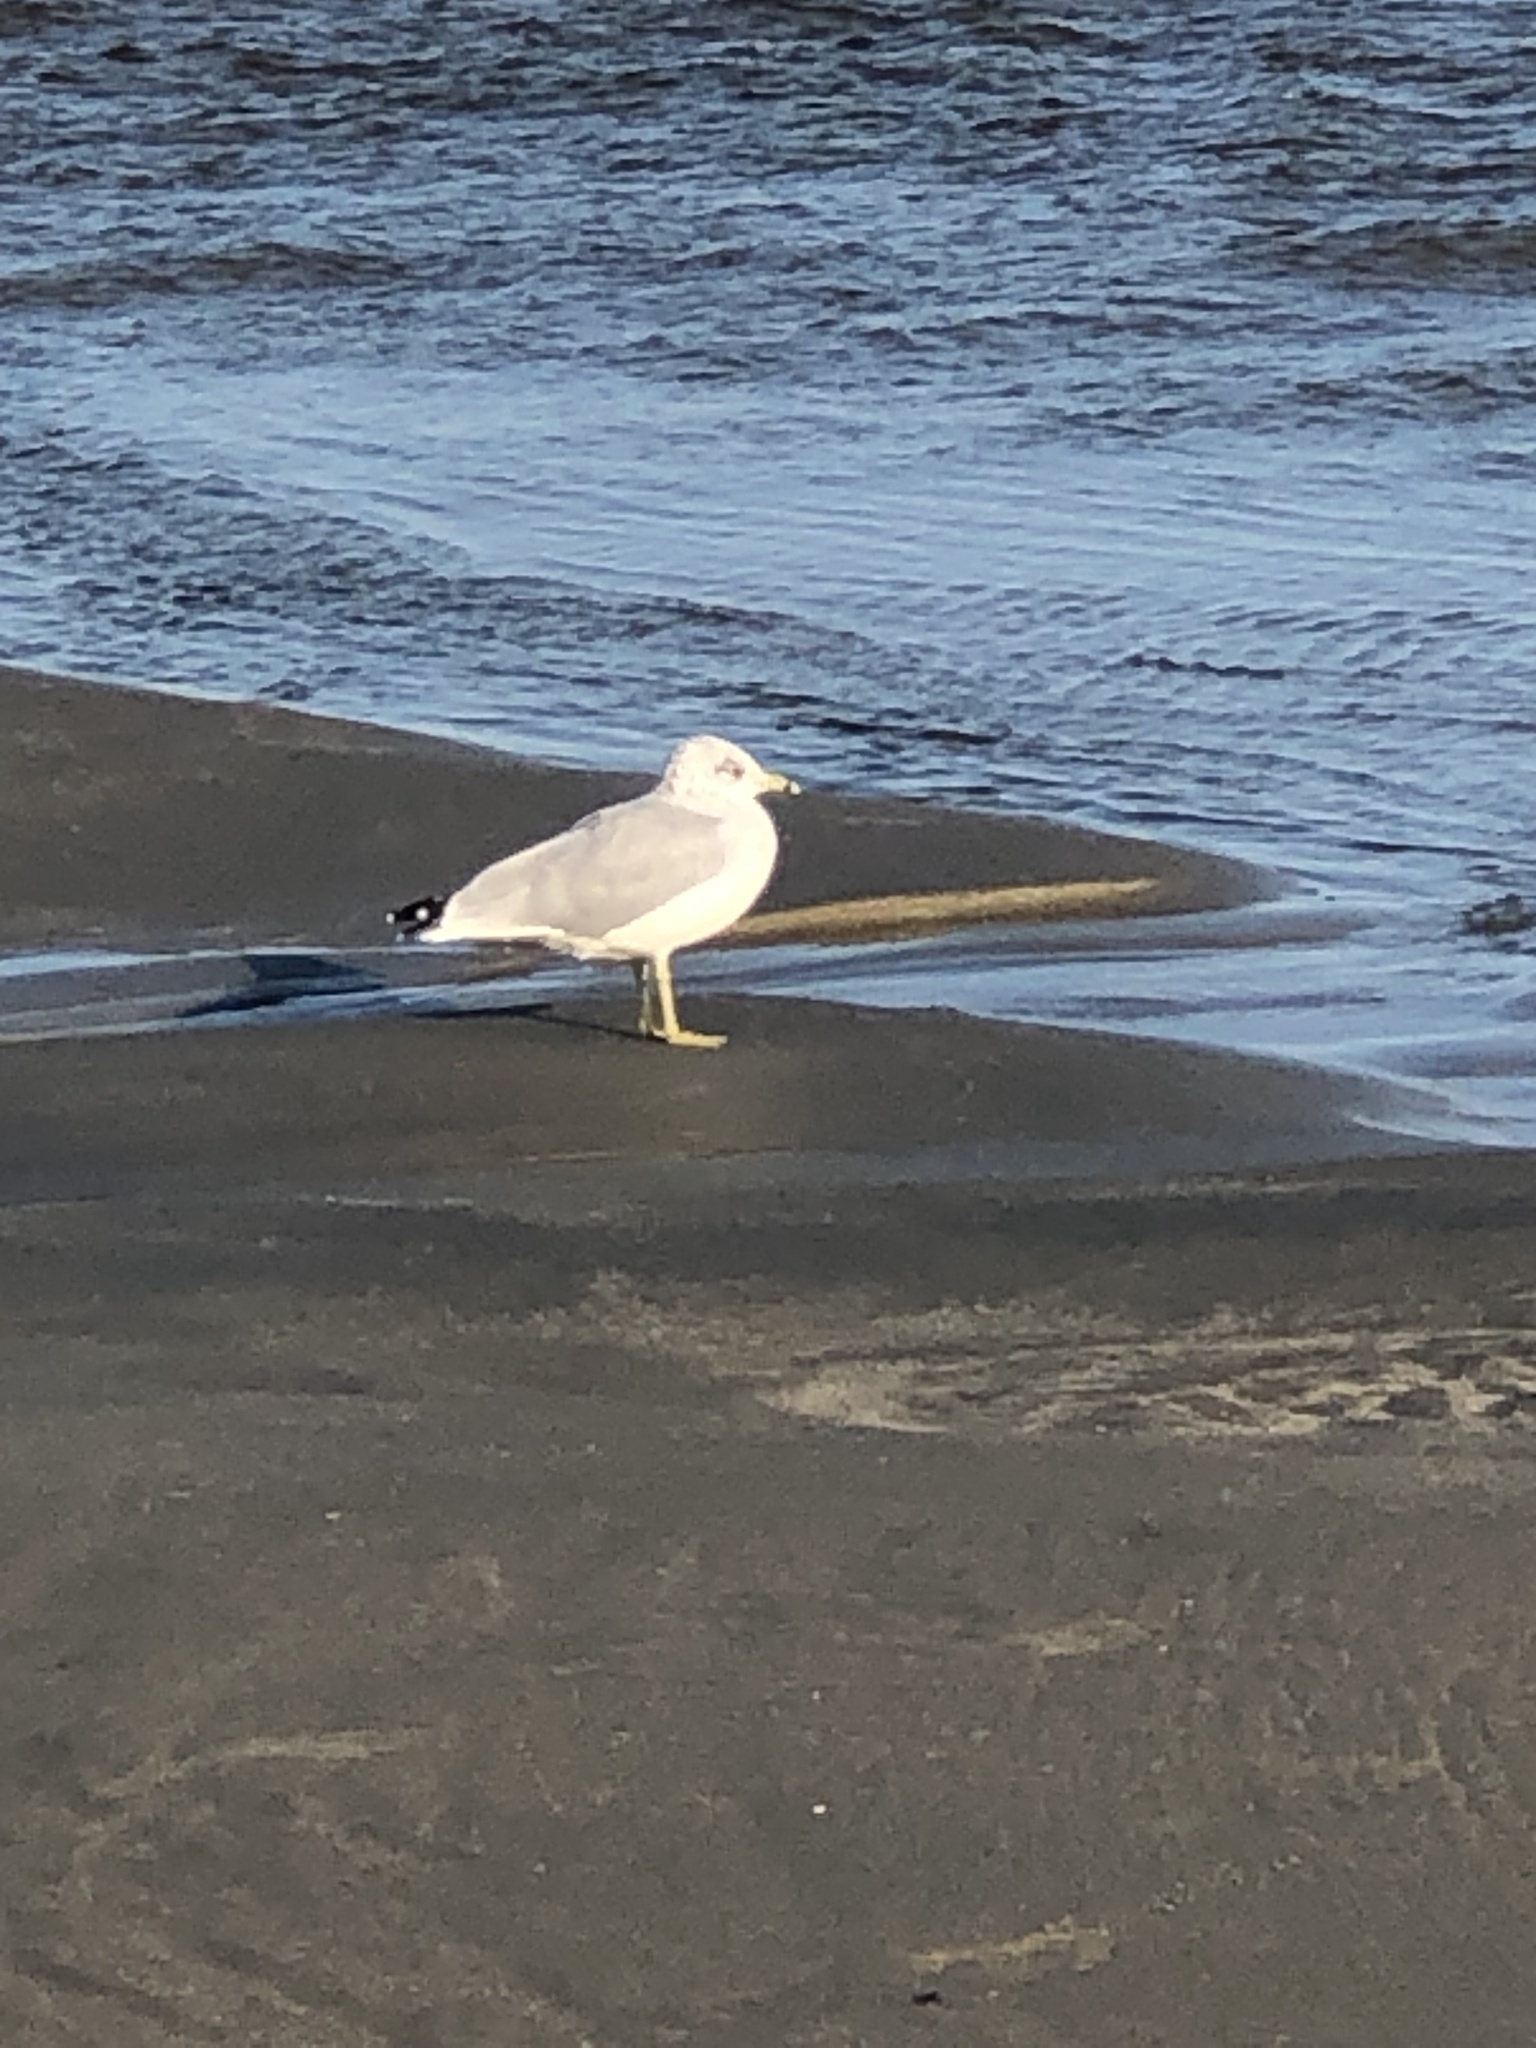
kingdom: Animalia
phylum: Chordata
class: Aves
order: Charadriiformes
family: Laridae
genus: Larus
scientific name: Larus delawarensis
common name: Ring-billed gull
